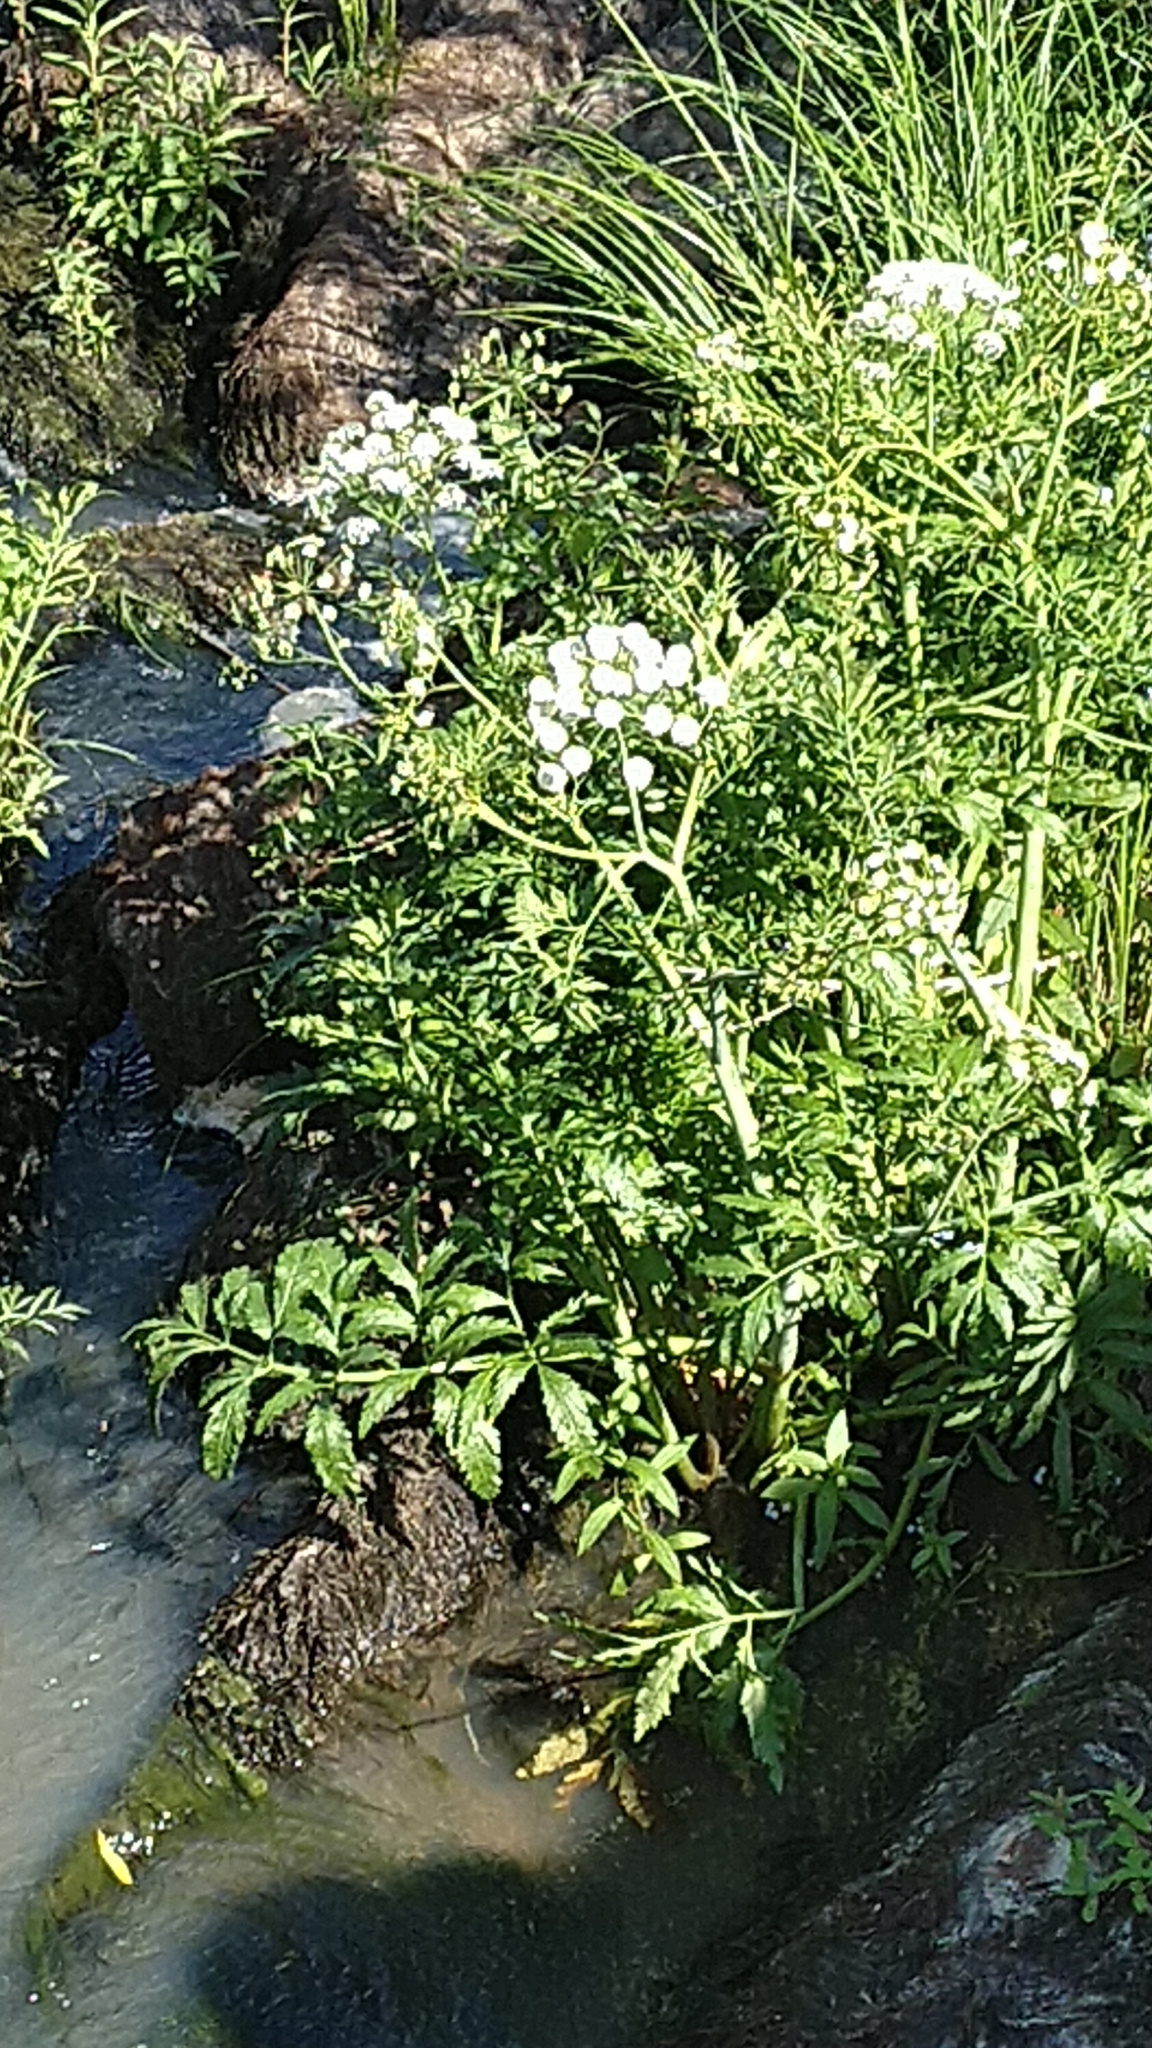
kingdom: Plantae
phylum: Tracheophyta
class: Magnoliopsida
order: Apiales
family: Apiaceae
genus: Cicuta
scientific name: Cicuta virosa
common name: Cowbane
